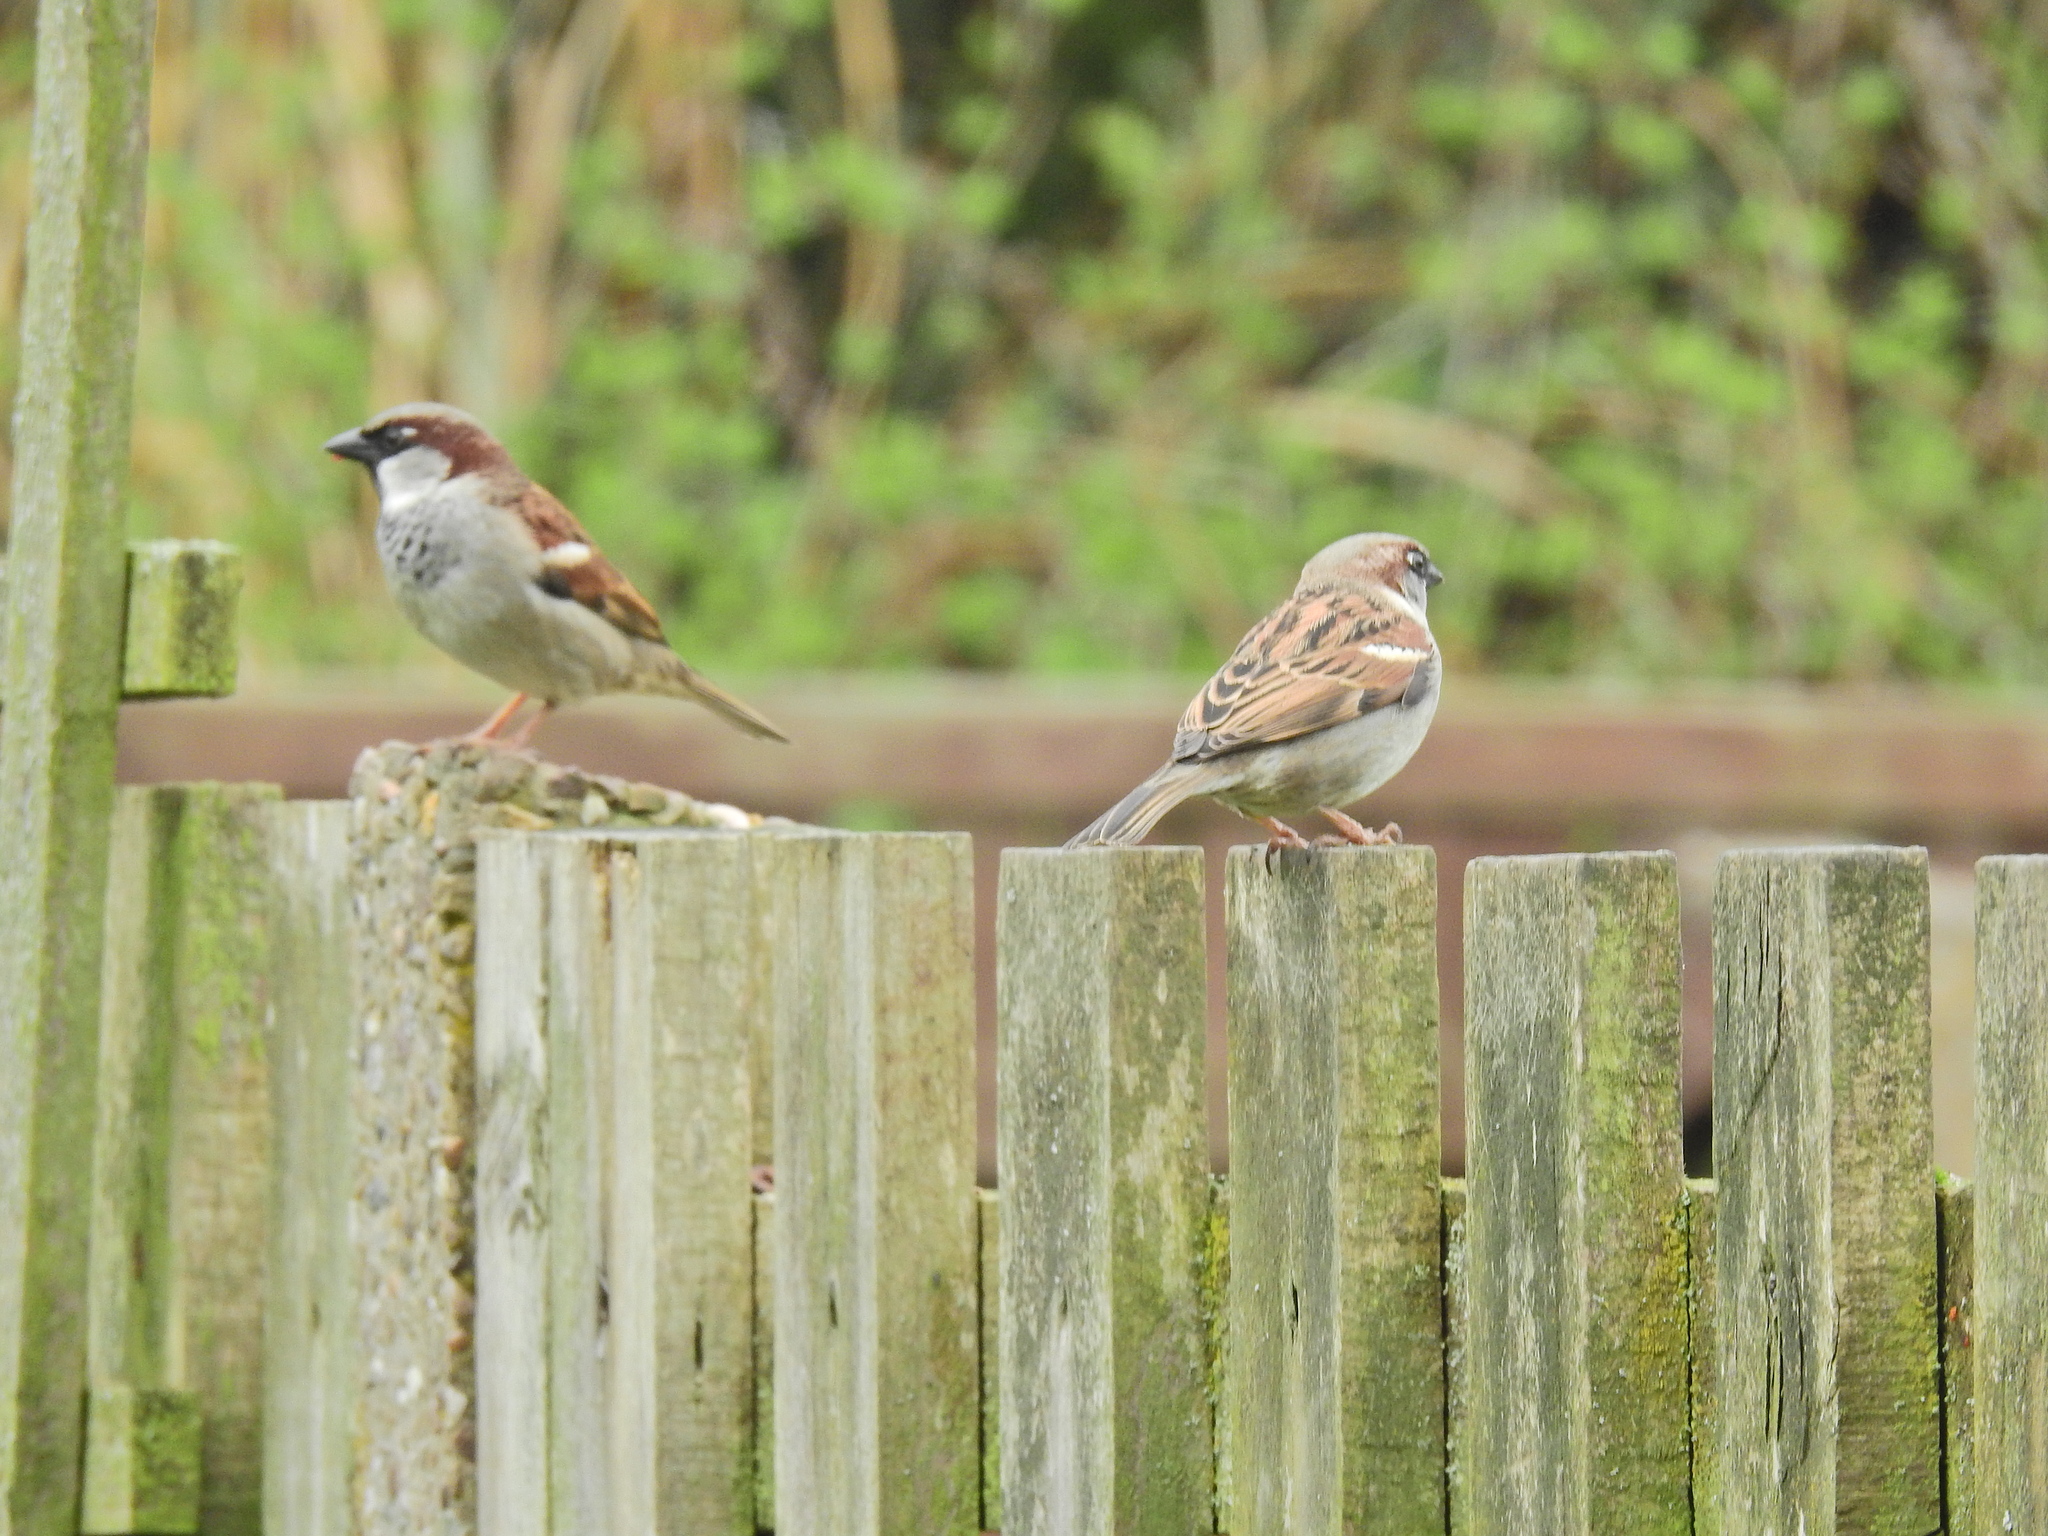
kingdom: Animalia
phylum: Chordata
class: Aves
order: Passeriformes
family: Passeridae
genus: Passer
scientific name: Passer domesticus
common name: House sparrow
